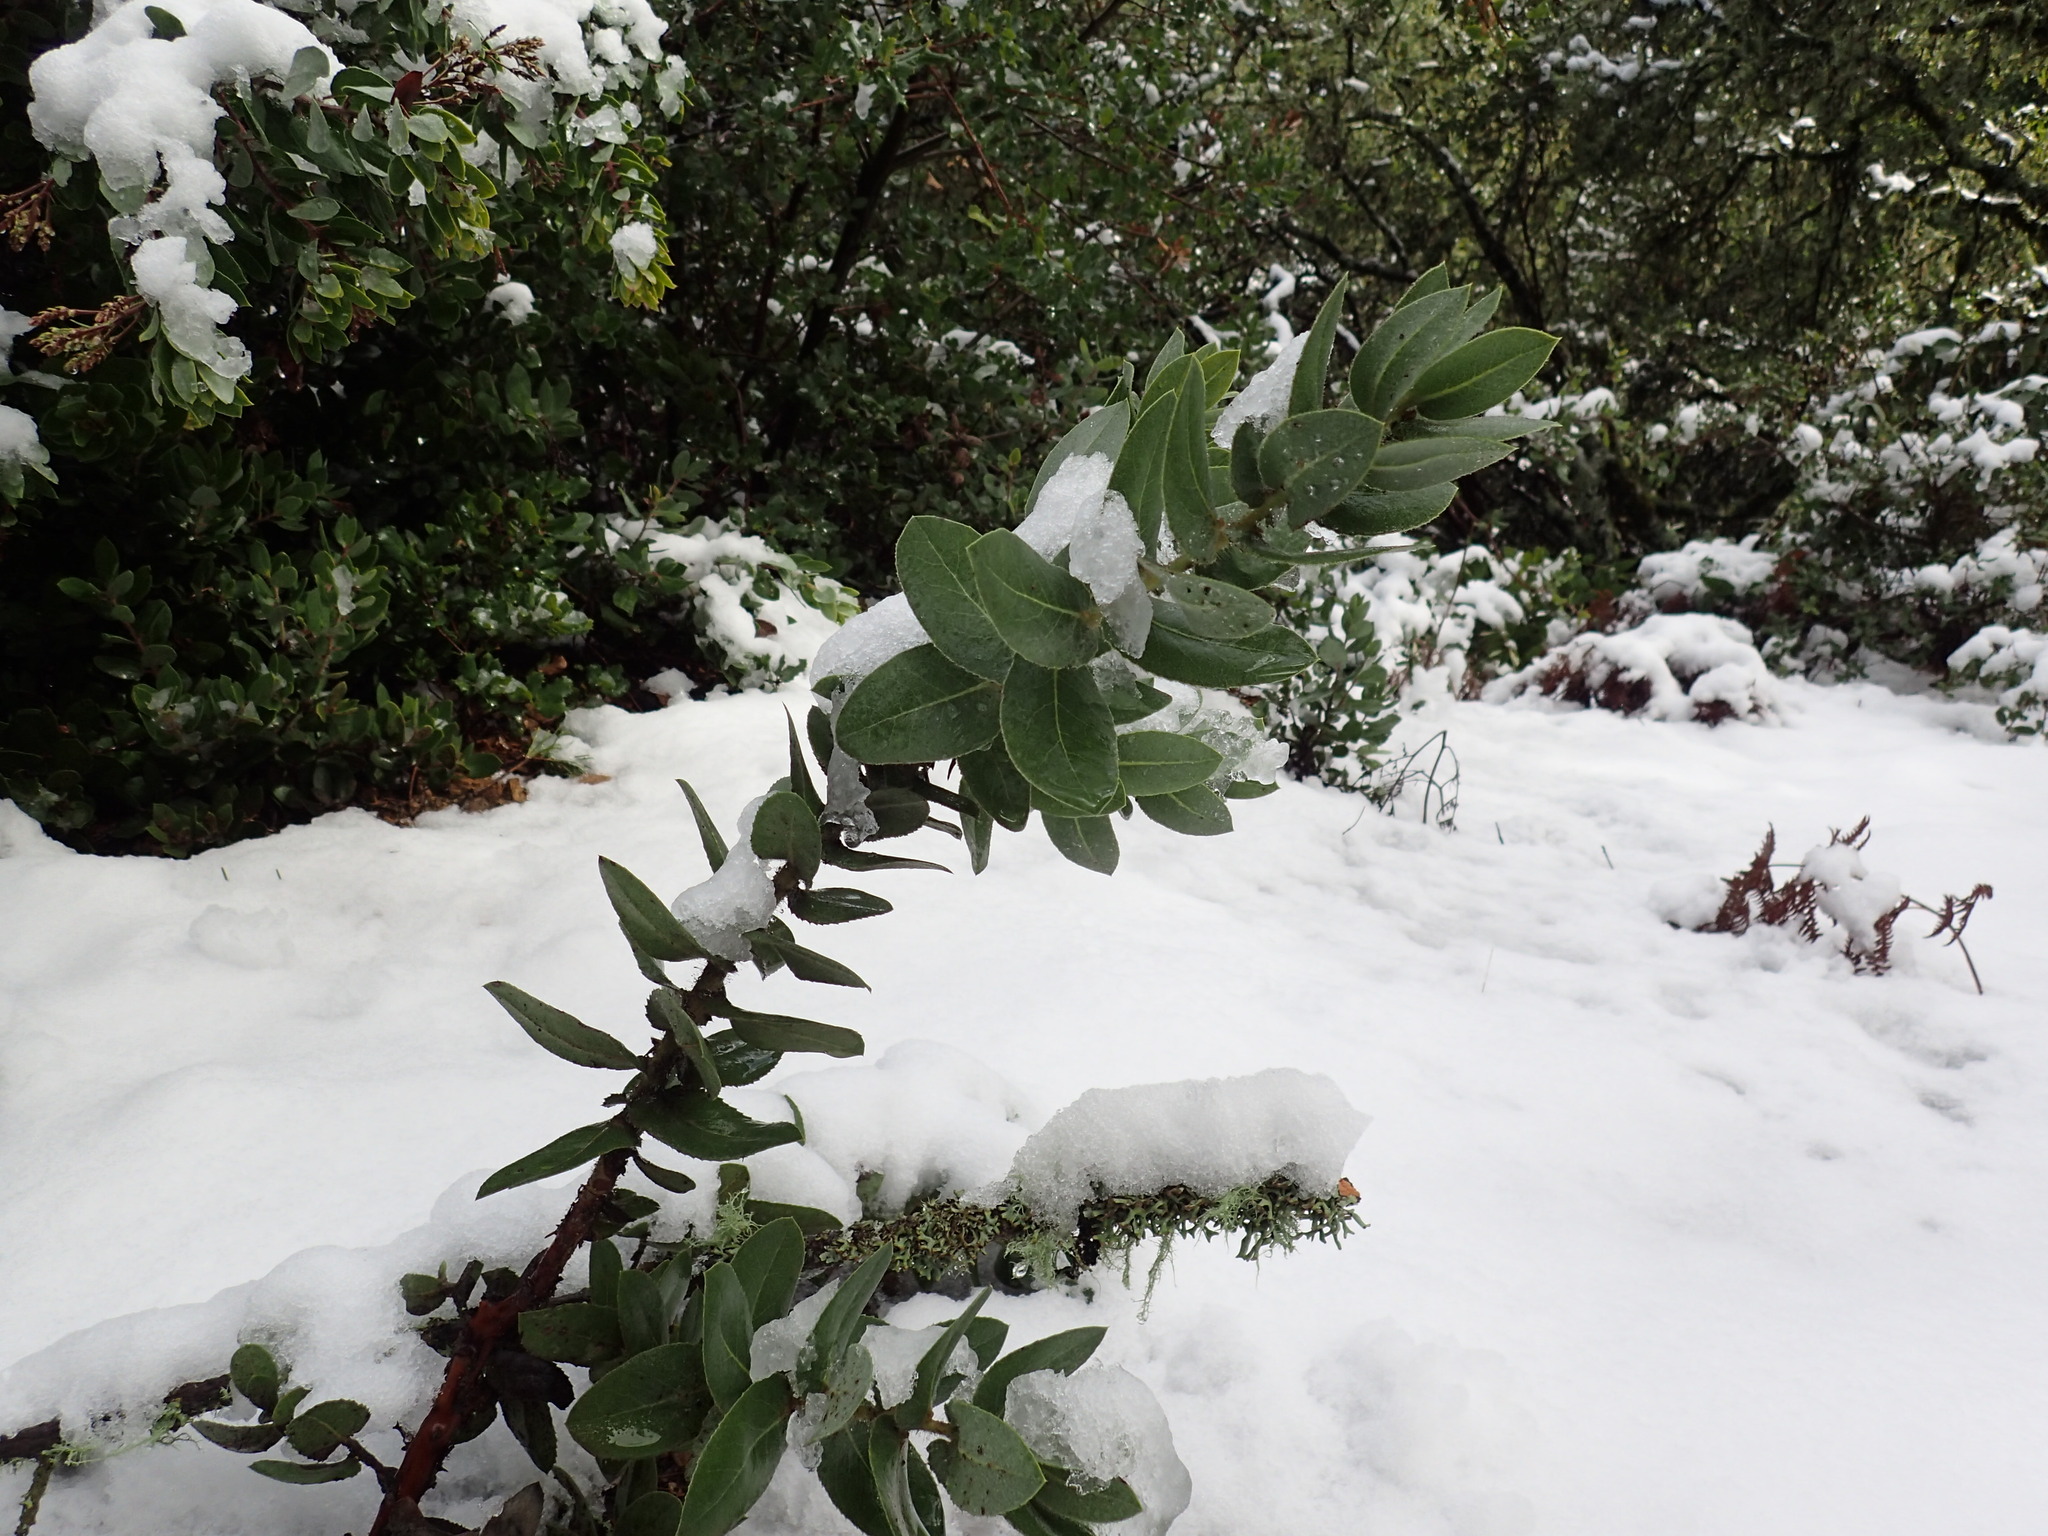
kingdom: Plantae
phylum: Tracheophyta
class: Magnoliopsida
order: Ericales
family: Ericaceae
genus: Arctostaphylos
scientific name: Arctostaphylos regismontana
